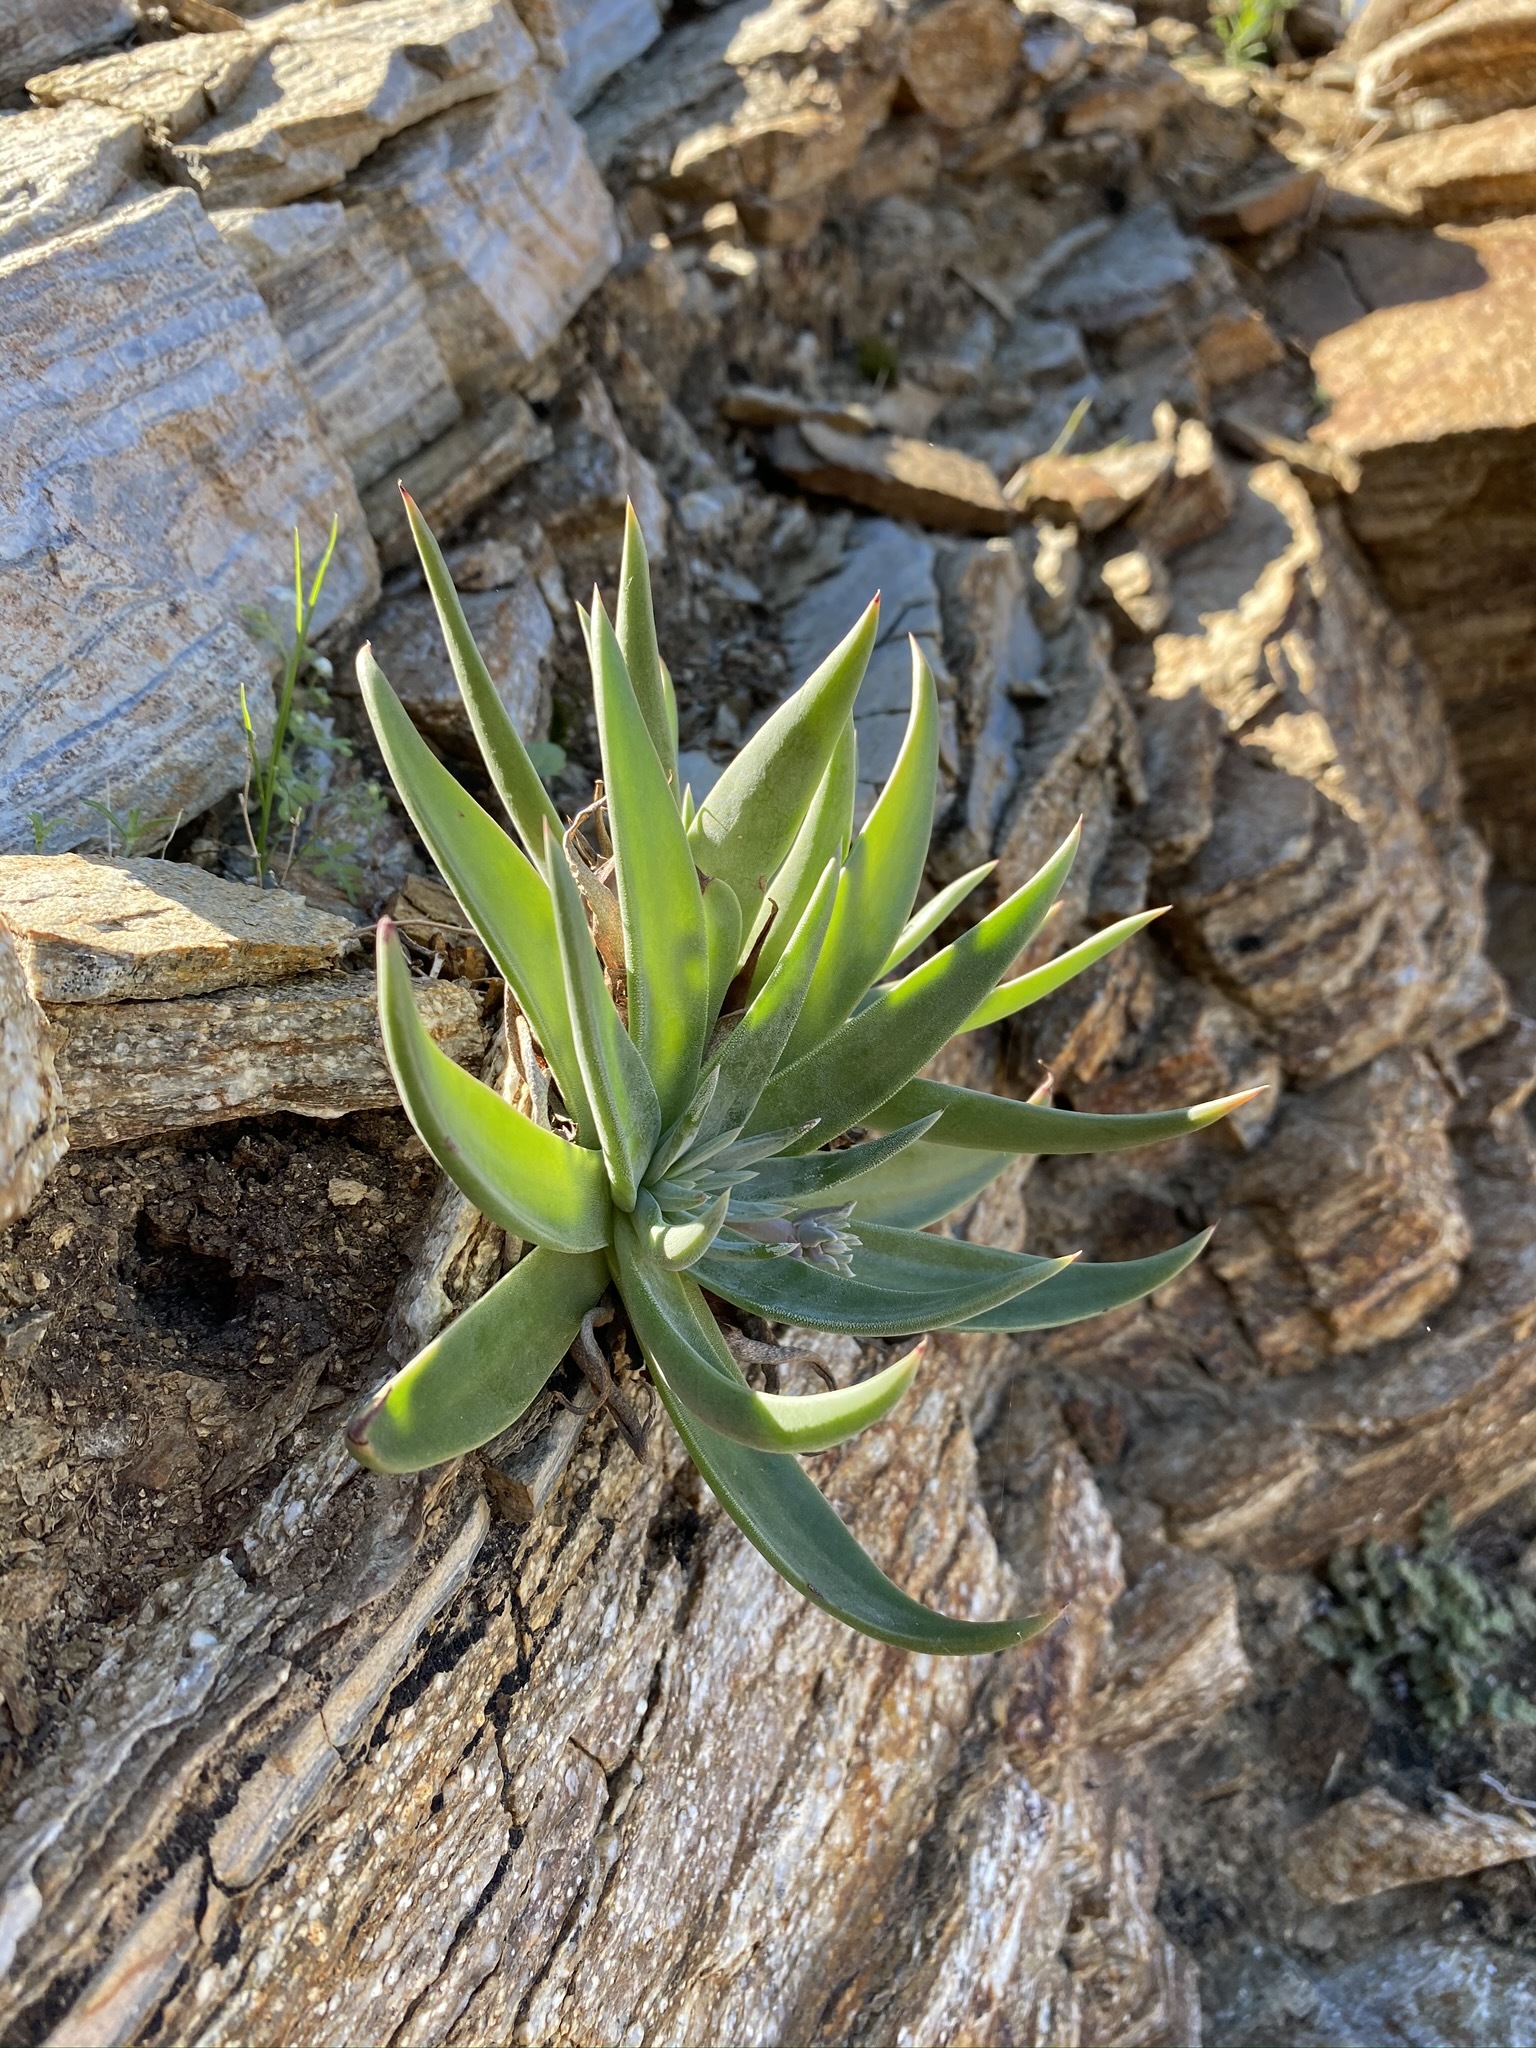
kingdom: Plantae
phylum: Tracheophyta
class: Magnoliopsida
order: Saxifragales
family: Crassulaceae
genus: Dudleya
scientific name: Dudleya saxosa
